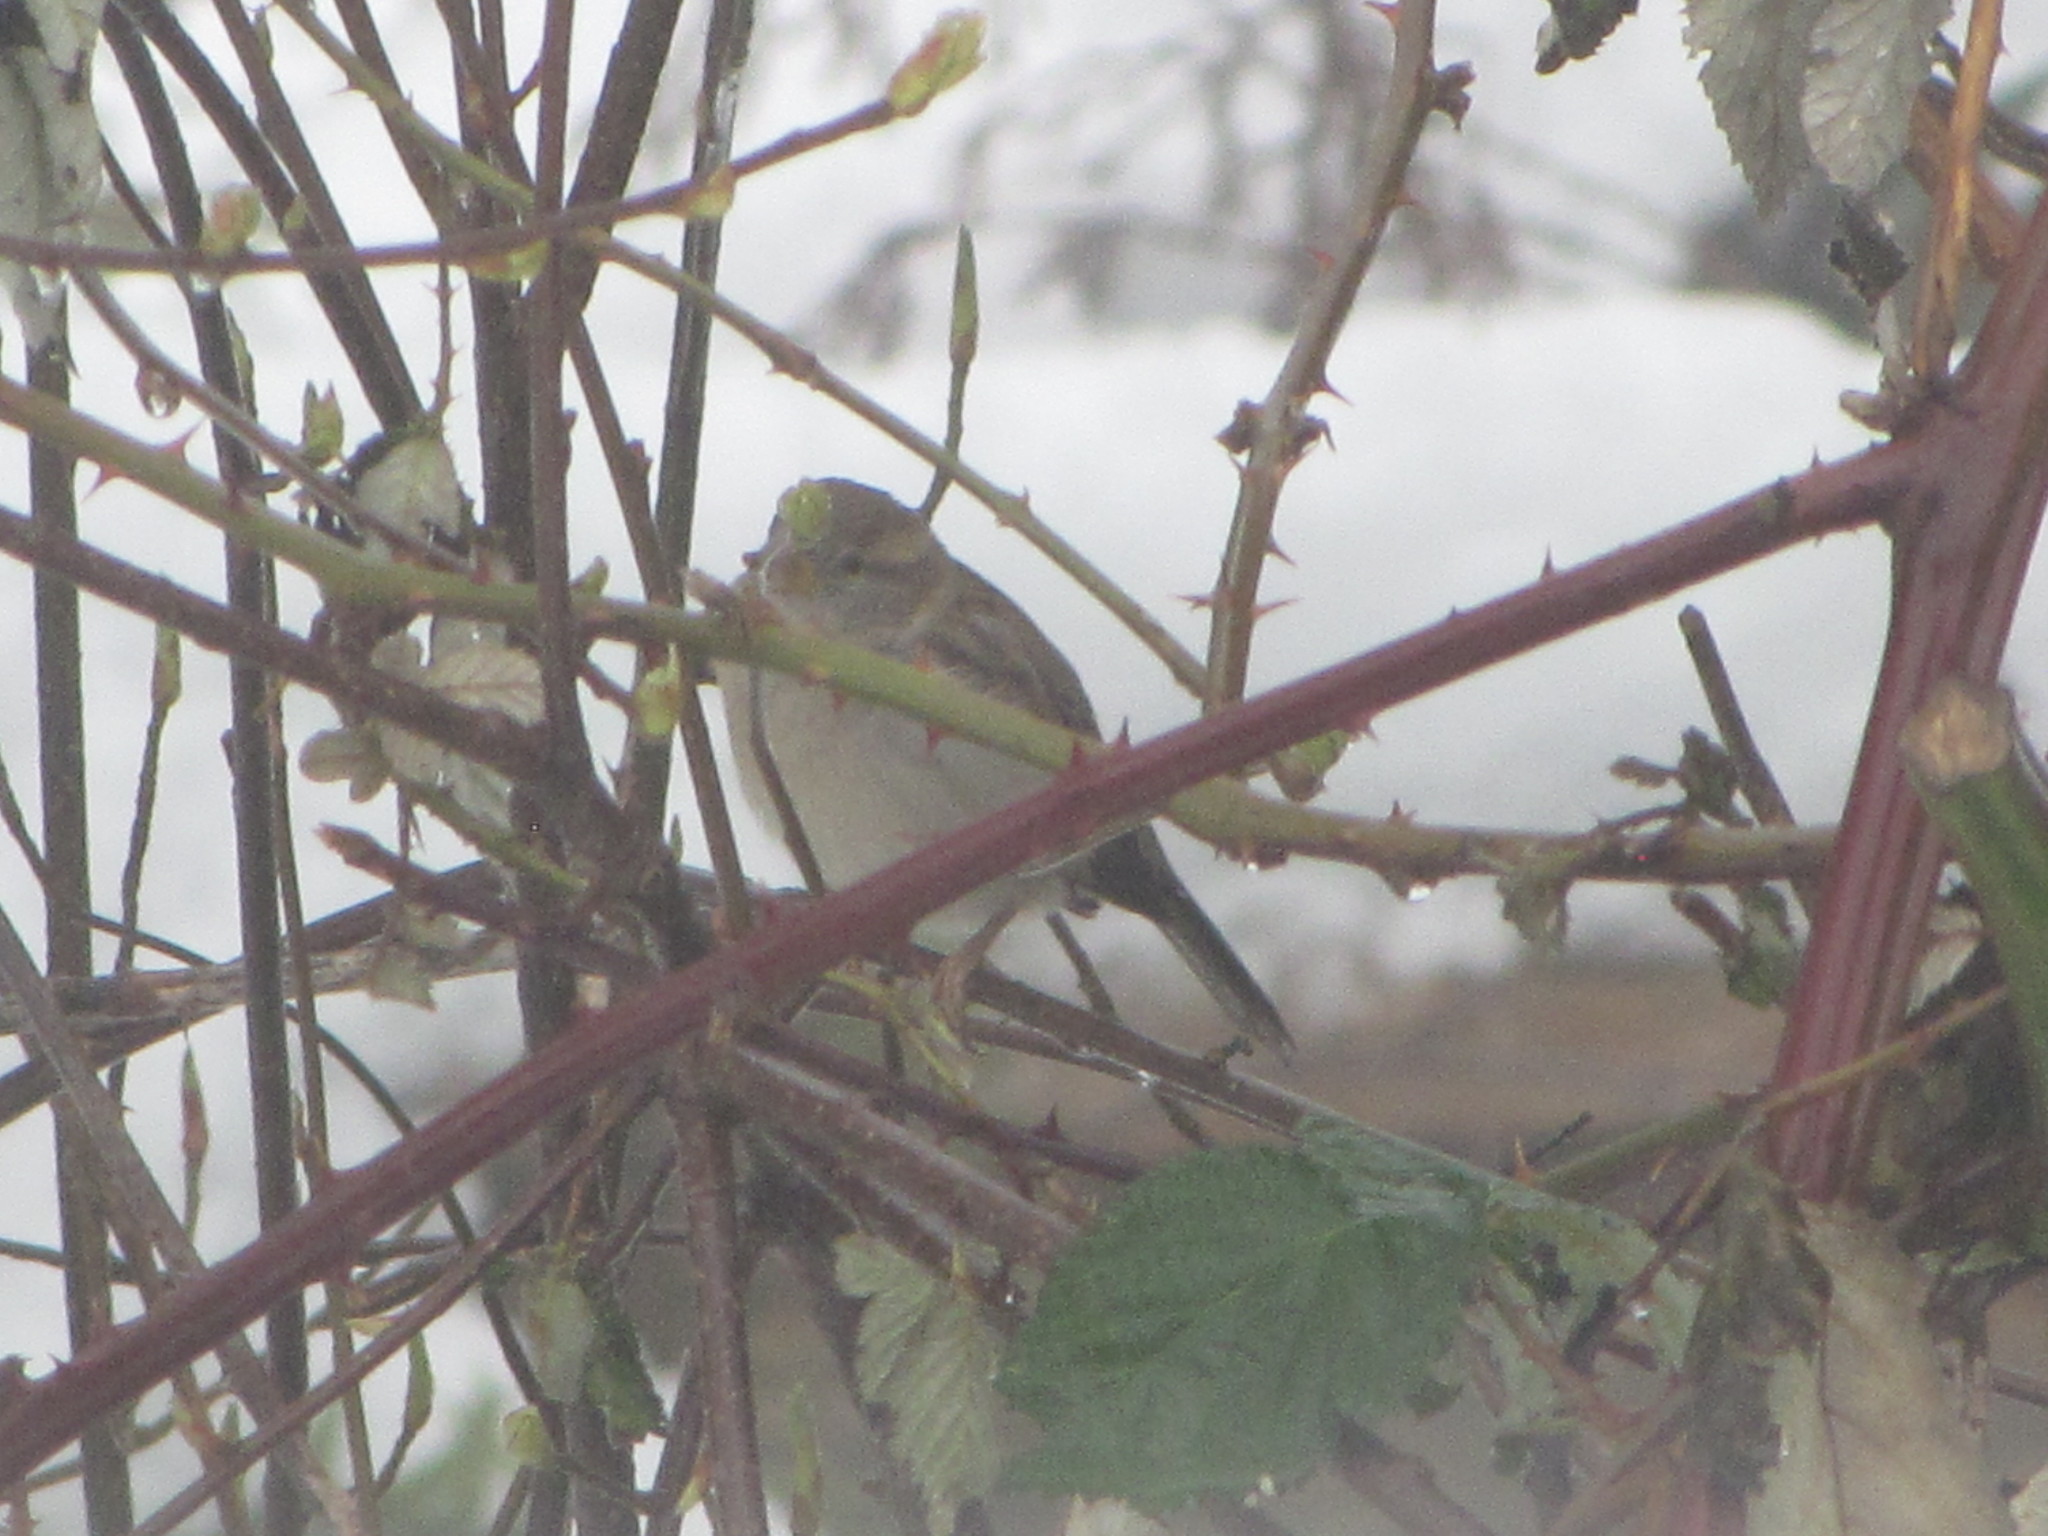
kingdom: Animalia
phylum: Chordata
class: Aves
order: Passeriformes
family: Passeridae
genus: Passer
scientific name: Passer domesticus
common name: House sparrow
